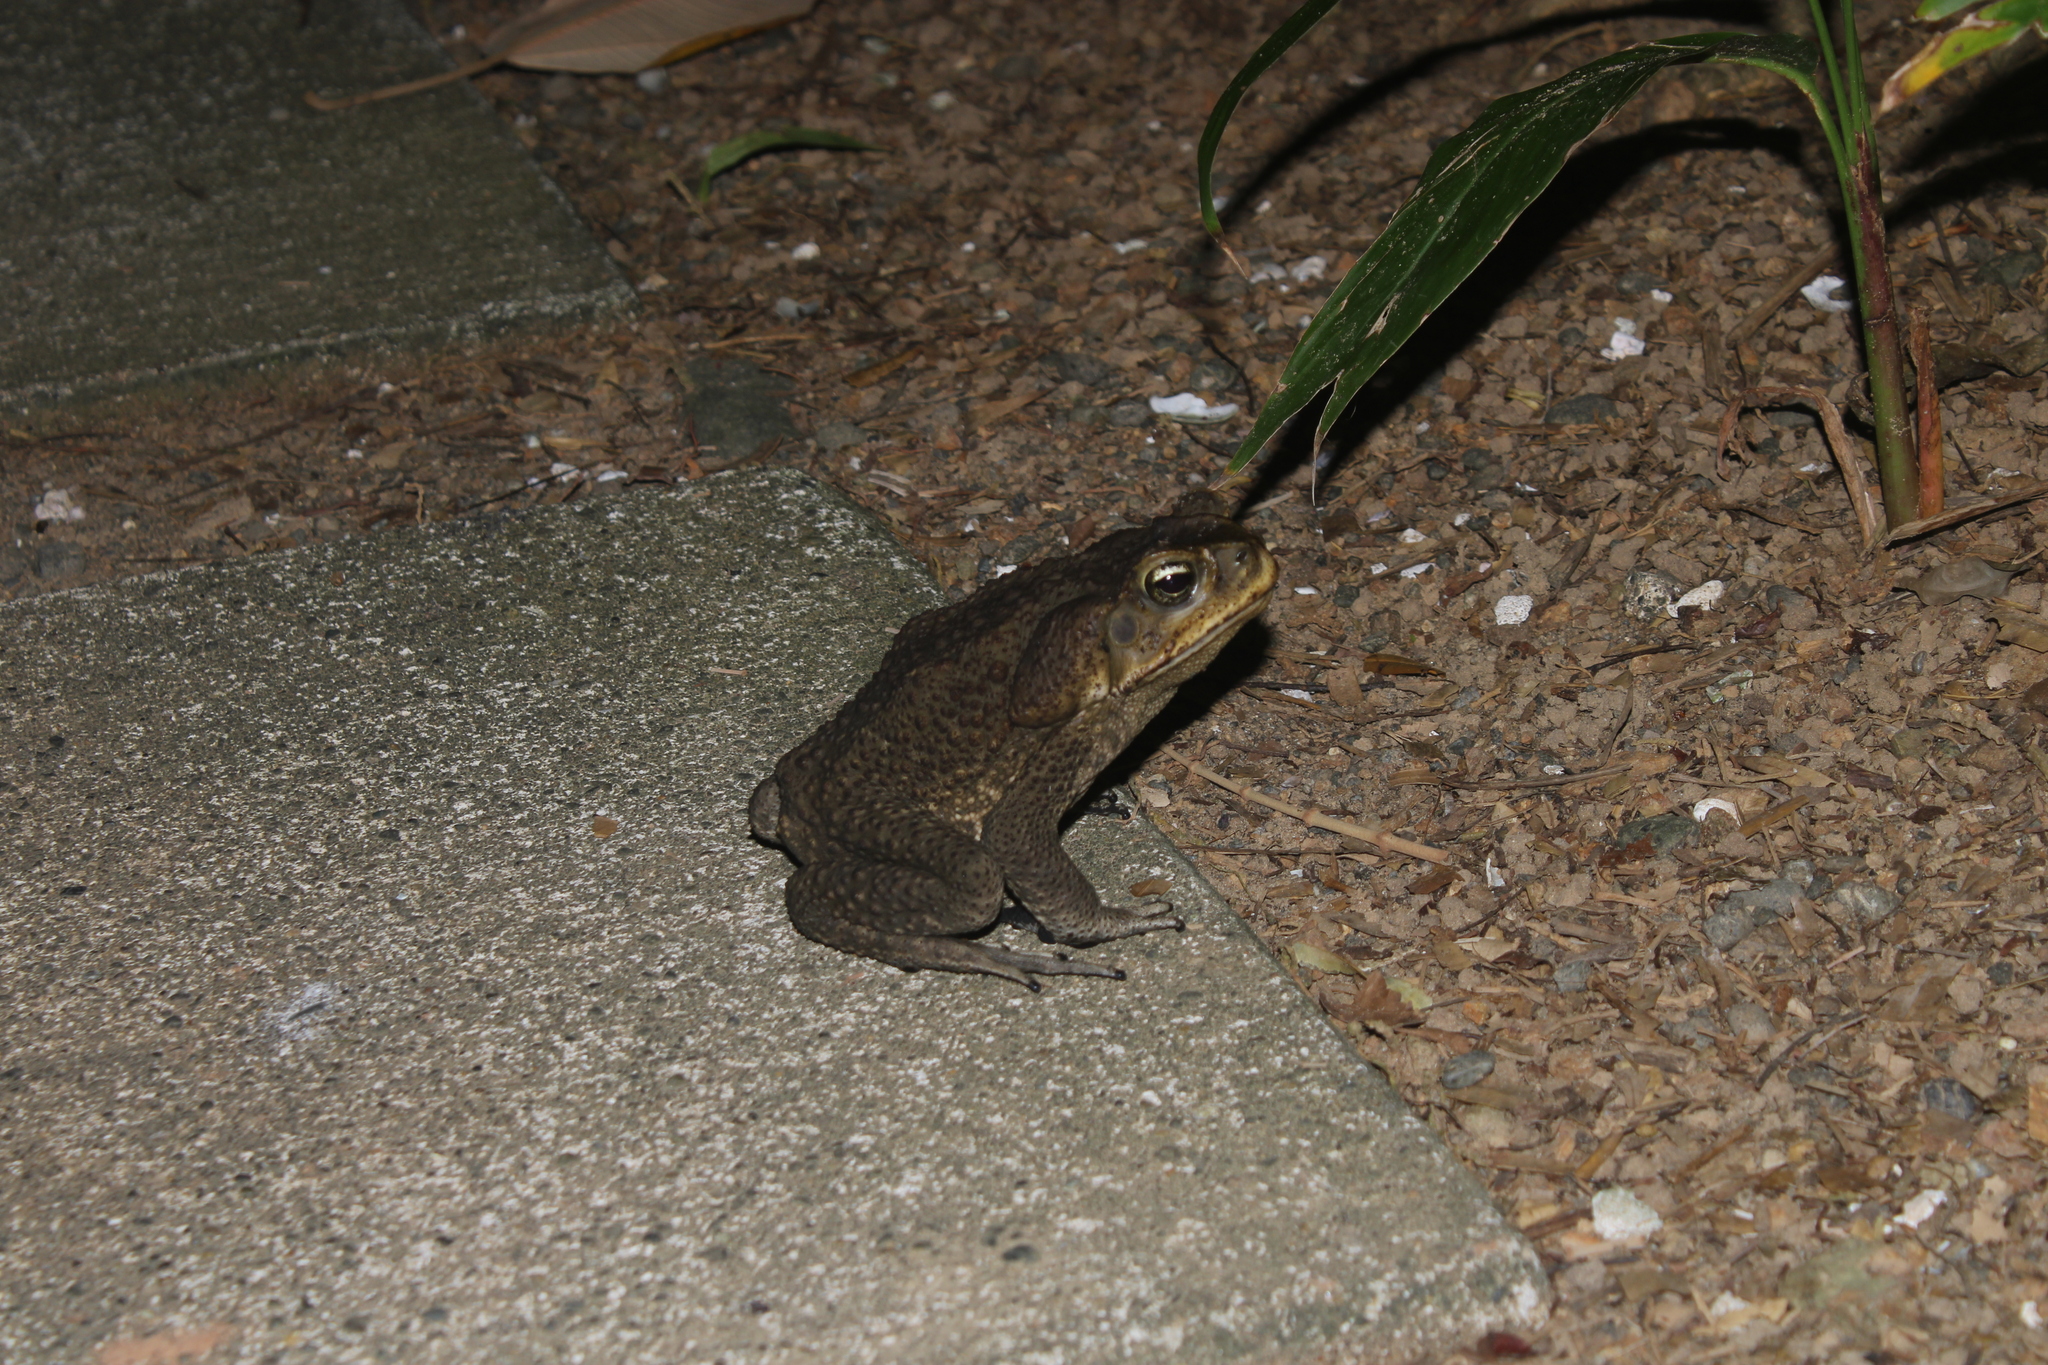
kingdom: Animalia
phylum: Chordata
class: Amphibia
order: Anura
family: Bufonidae
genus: Rhinella
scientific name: Rhinella horribilis
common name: Mesoamerican cane toad
